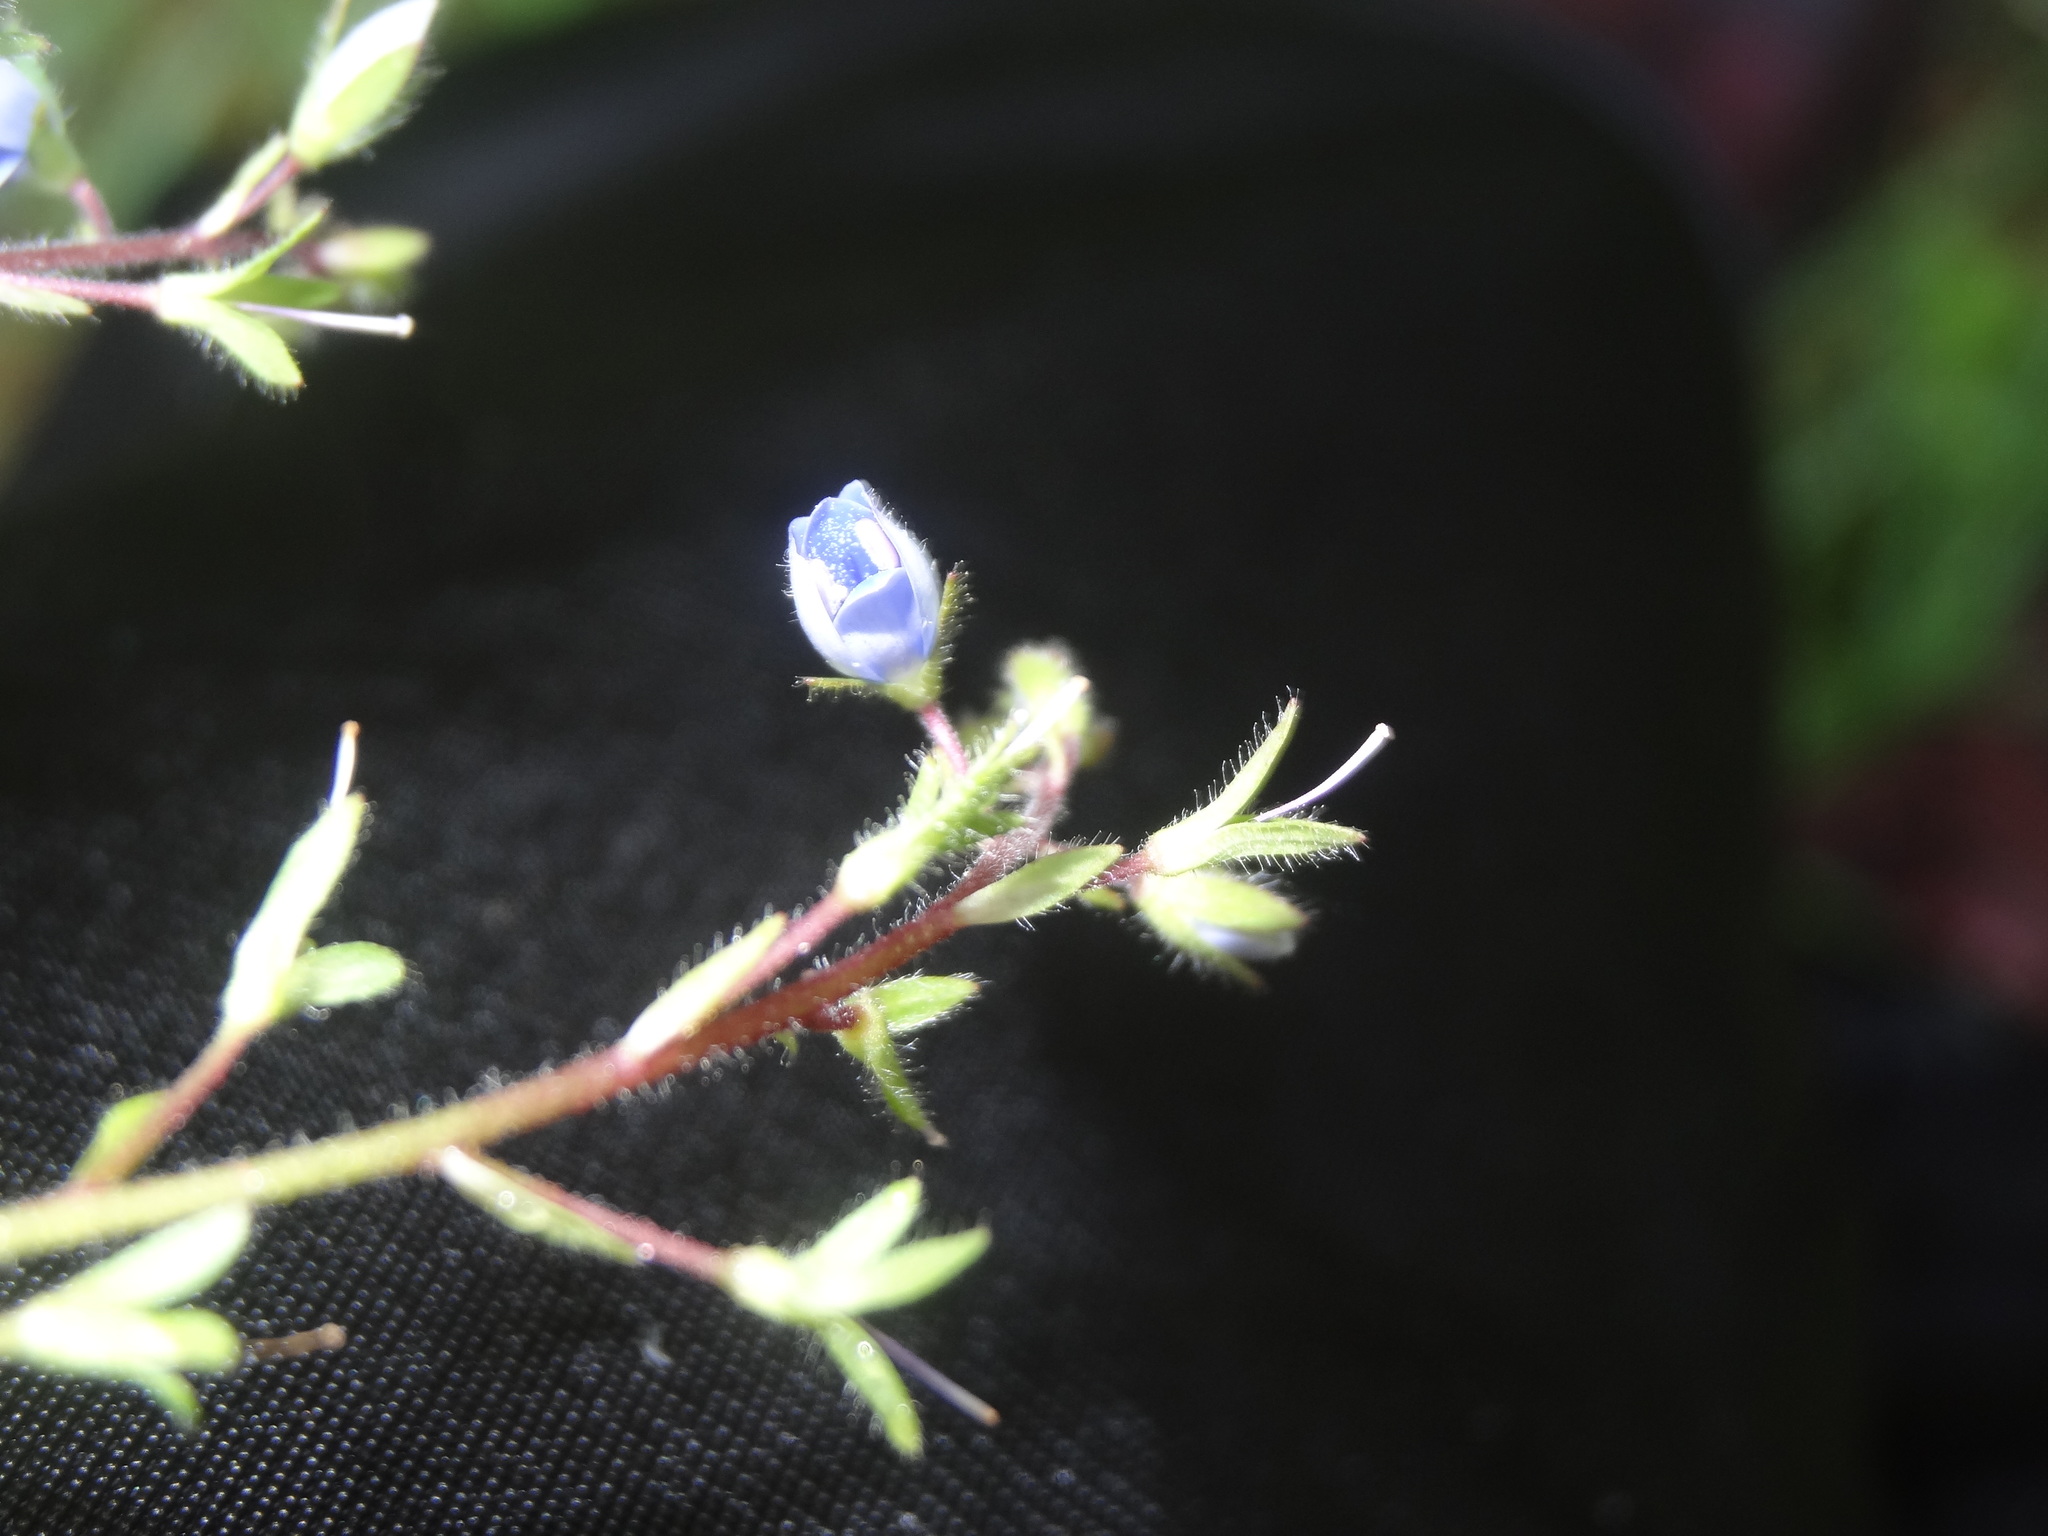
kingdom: Plantae
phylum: Tracheophyta
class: Magnoliopsida
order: Lamiales
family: Plantaginaceae
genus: Veronica
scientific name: Veronica chamaedrys
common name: Germander speedwell
